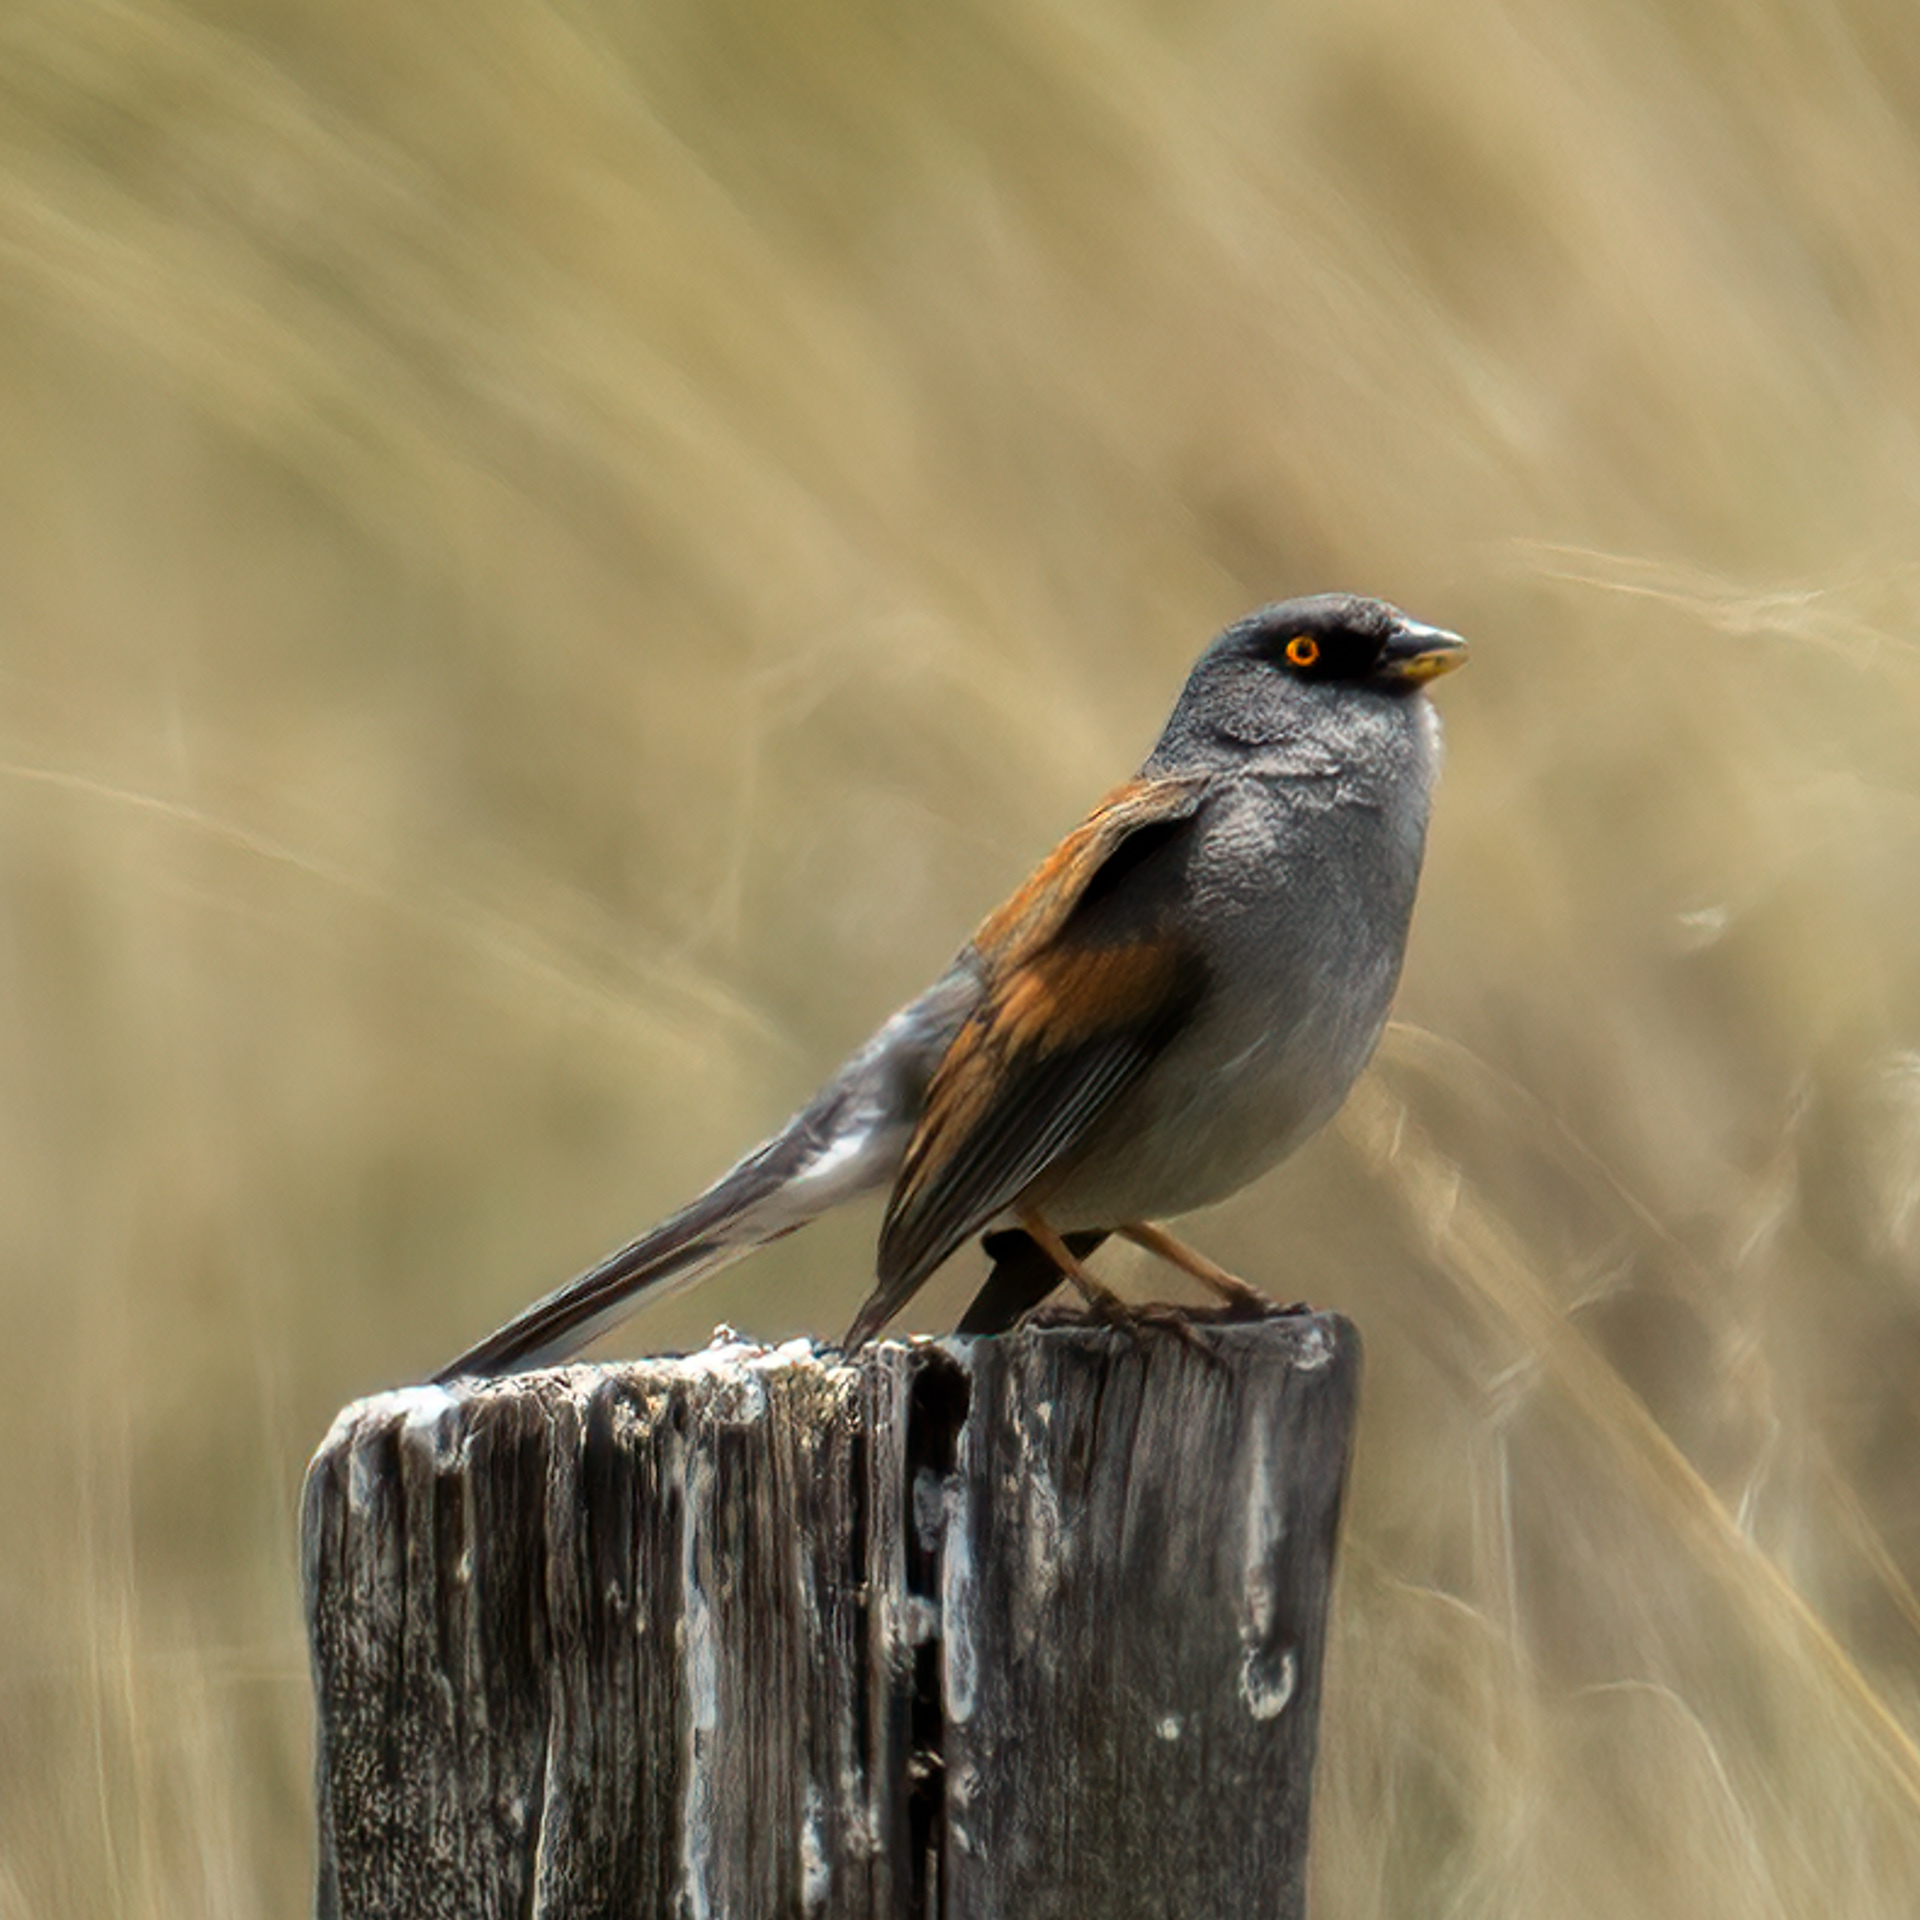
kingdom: Animalia
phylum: Chordata
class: Aves
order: Passeriformes
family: Passerellidae
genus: Junco
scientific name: Junco phaeonotus
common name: Yellow-eyed junco
